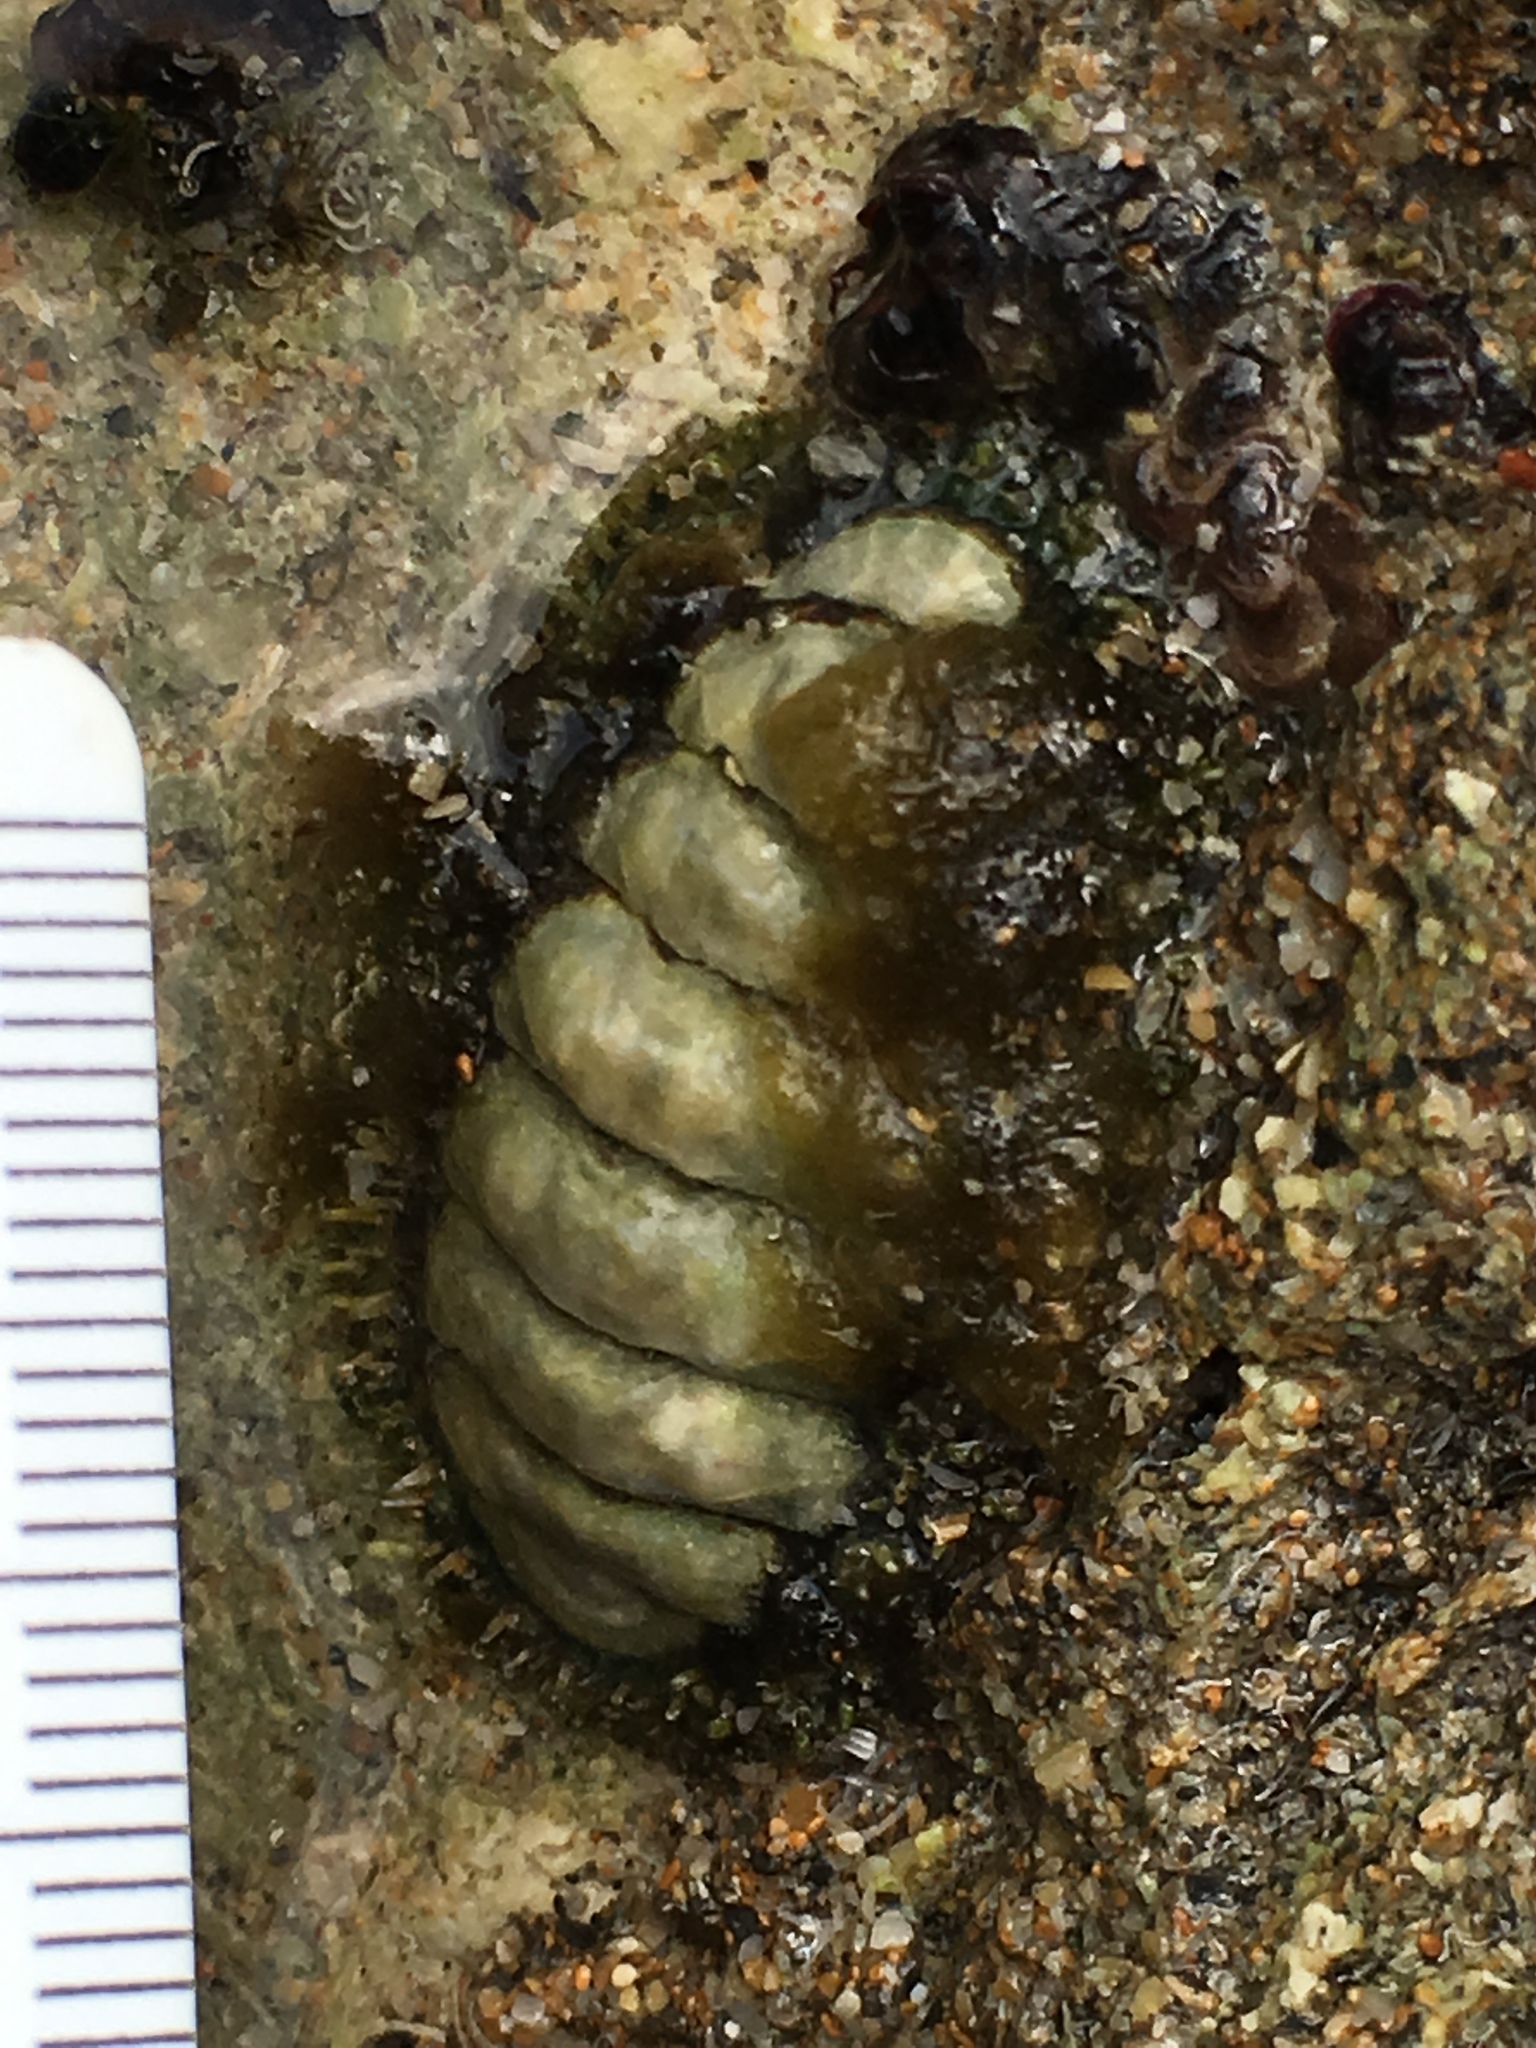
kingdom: Animalia
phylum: Mollusca
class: Polyplacophora
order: Chitonida
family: Tonicellidae
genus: Ceratozona
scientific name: Ceratozona squalida
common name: Rough-girdled chiton
